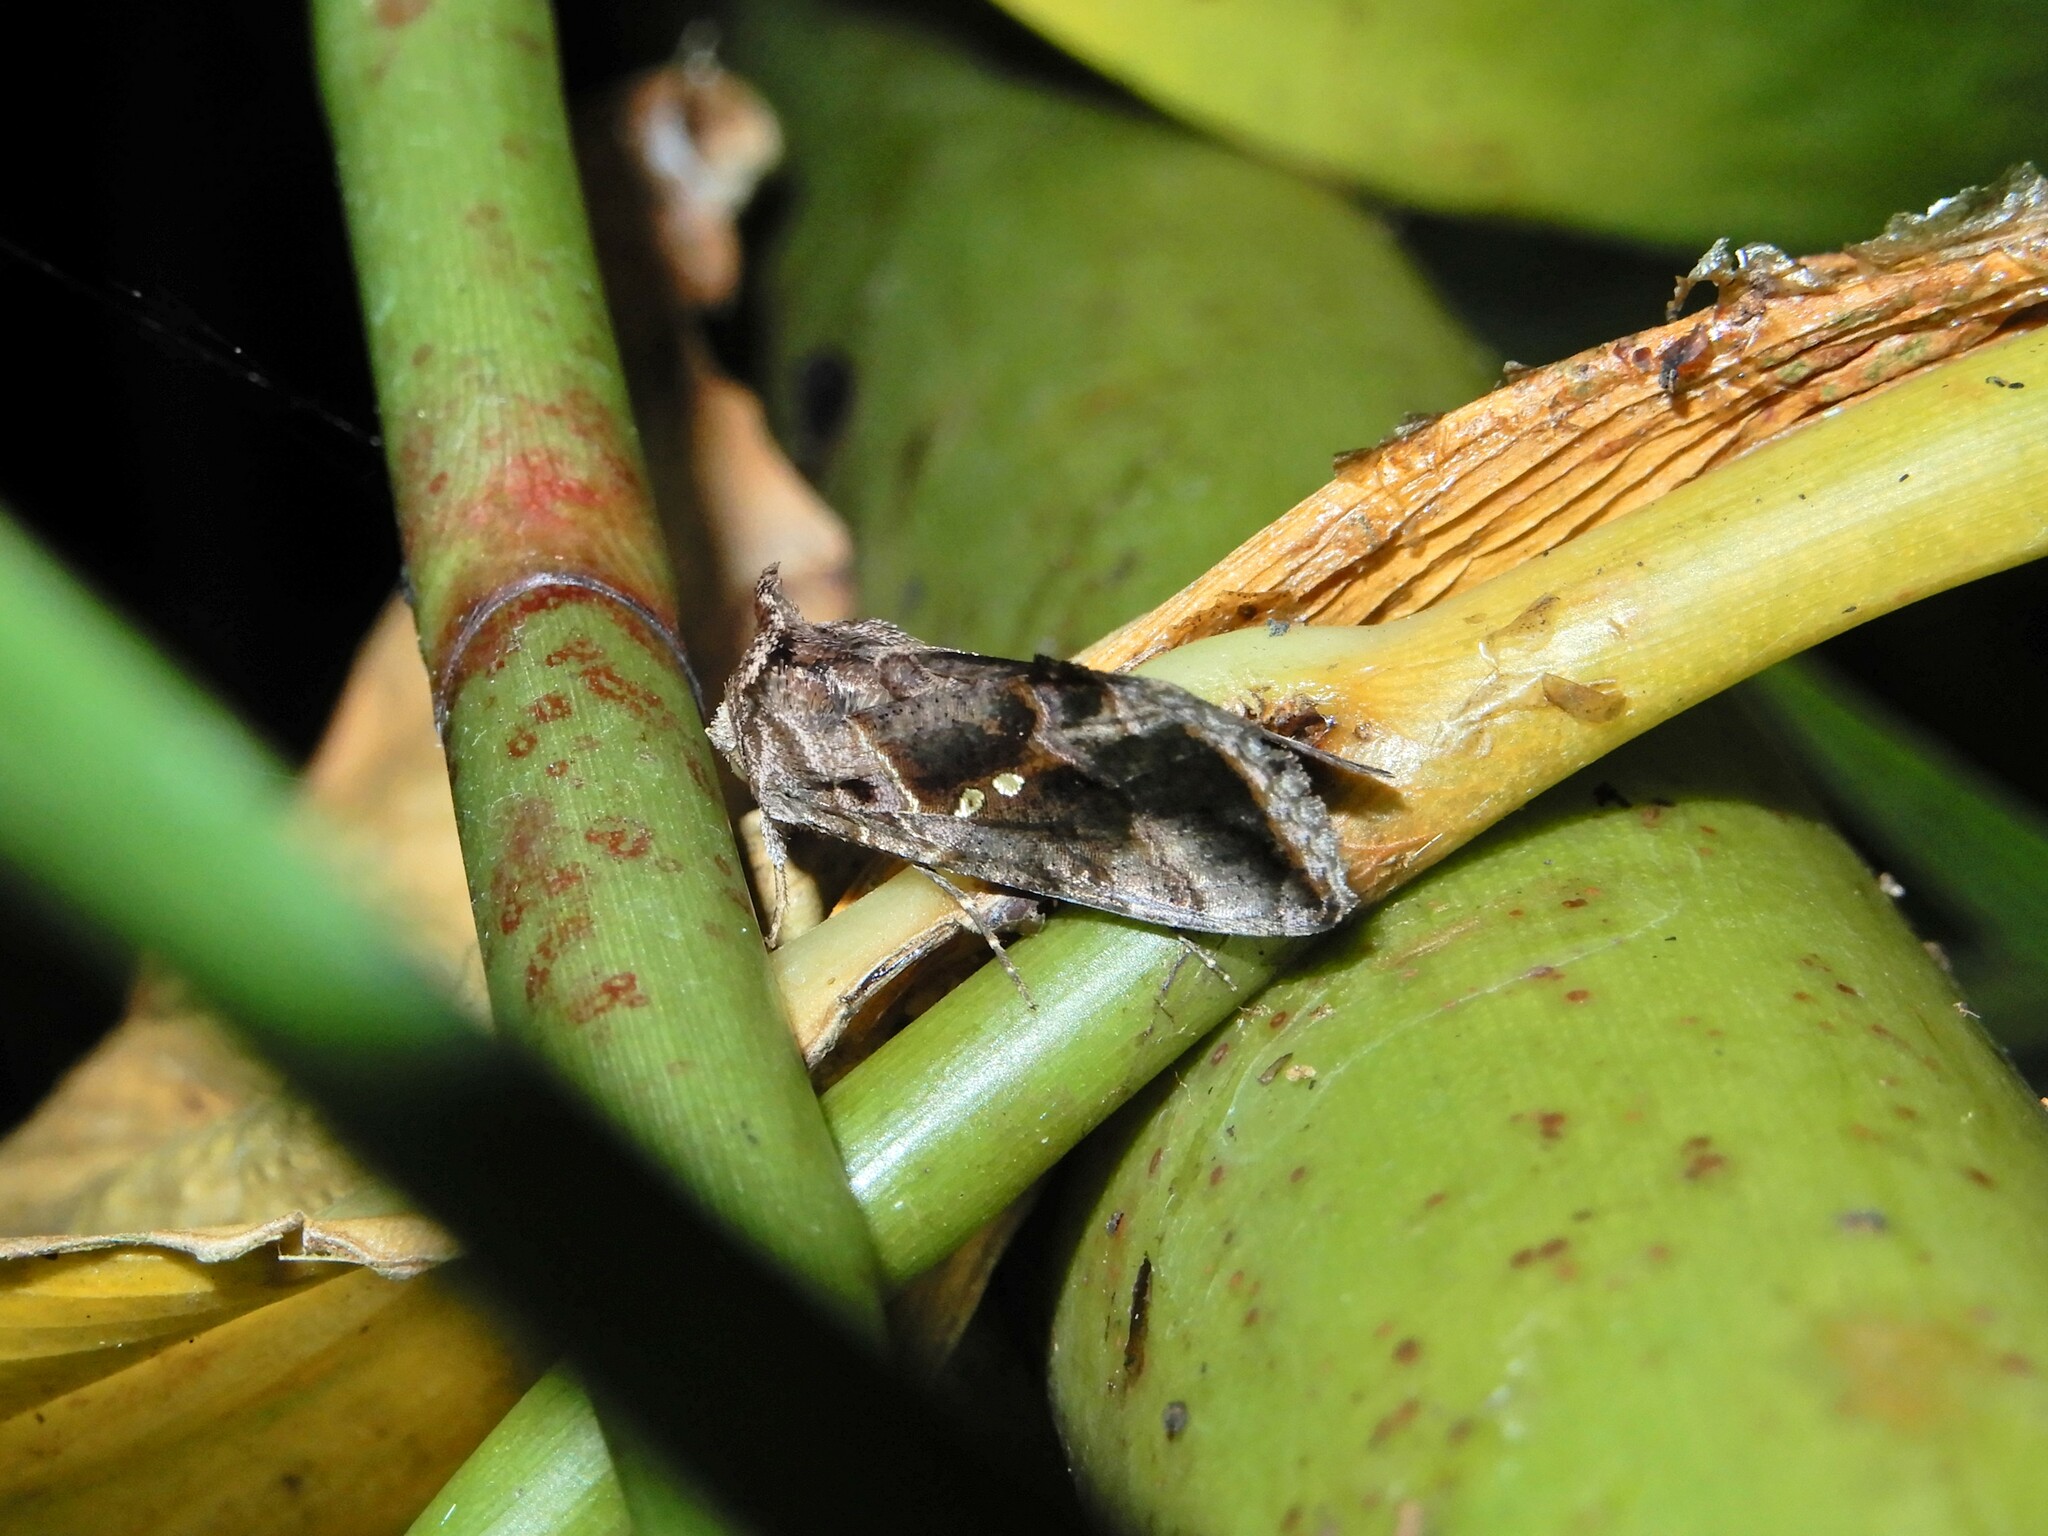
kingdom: Animalia
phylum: Arthropoda
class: Insecta
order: Lepidoptera
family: Noctuidae
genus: Chrysodeixis
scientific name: Chrysodeixis eriosoma
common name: Green garden looper
